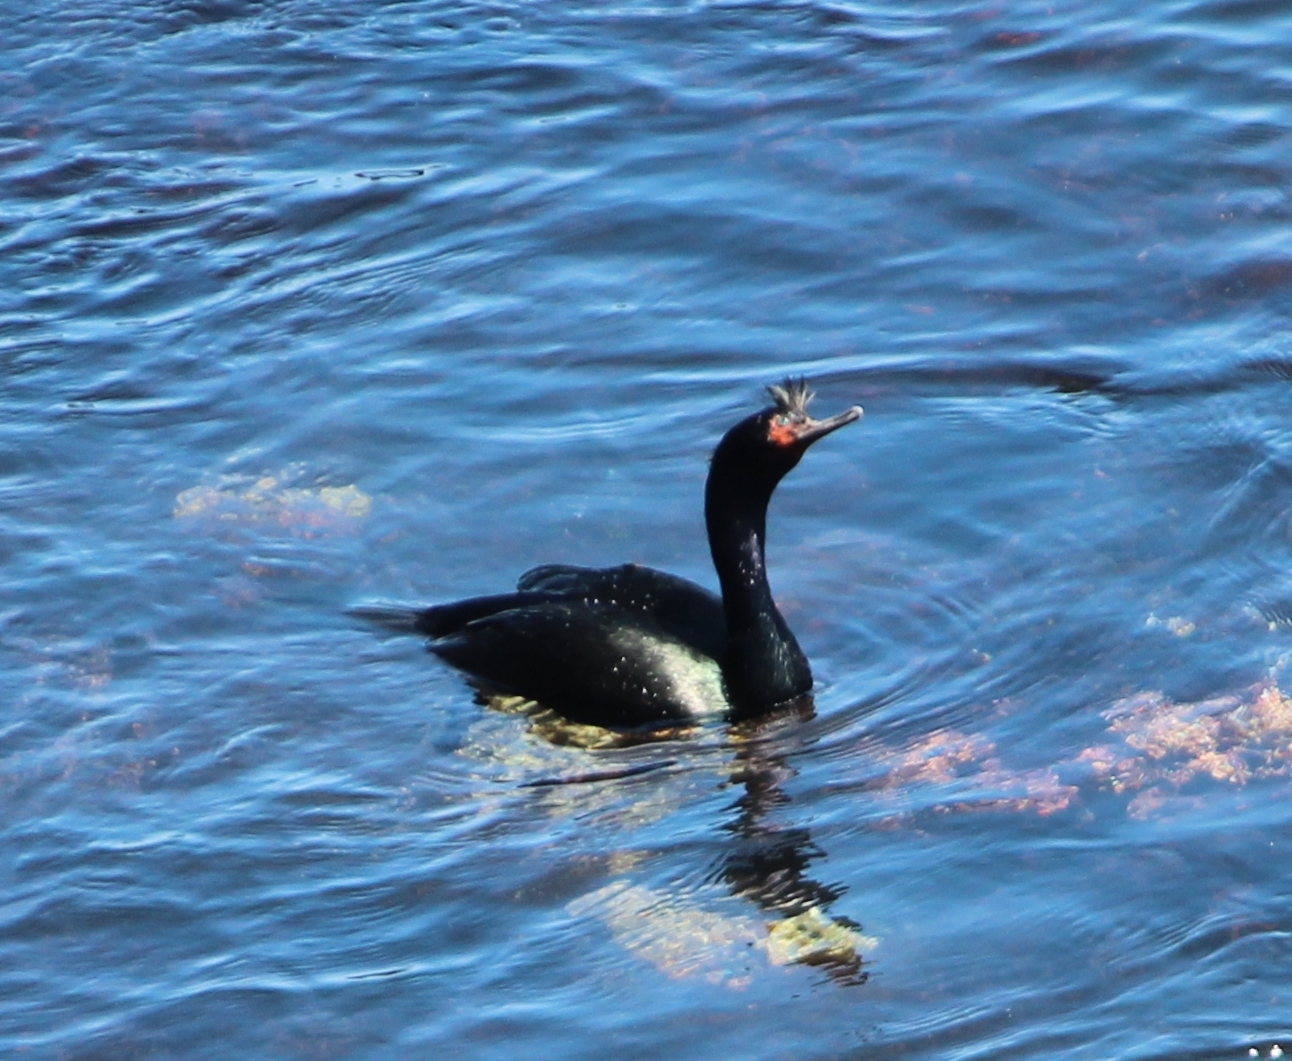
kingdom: Animalia
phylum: Chordata
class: Aves
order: Suliformes
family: Phalacrocoracidae
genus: Phalacrocorax
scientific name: Phalacrocorax pelagicus
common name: Pelagic cormorant
